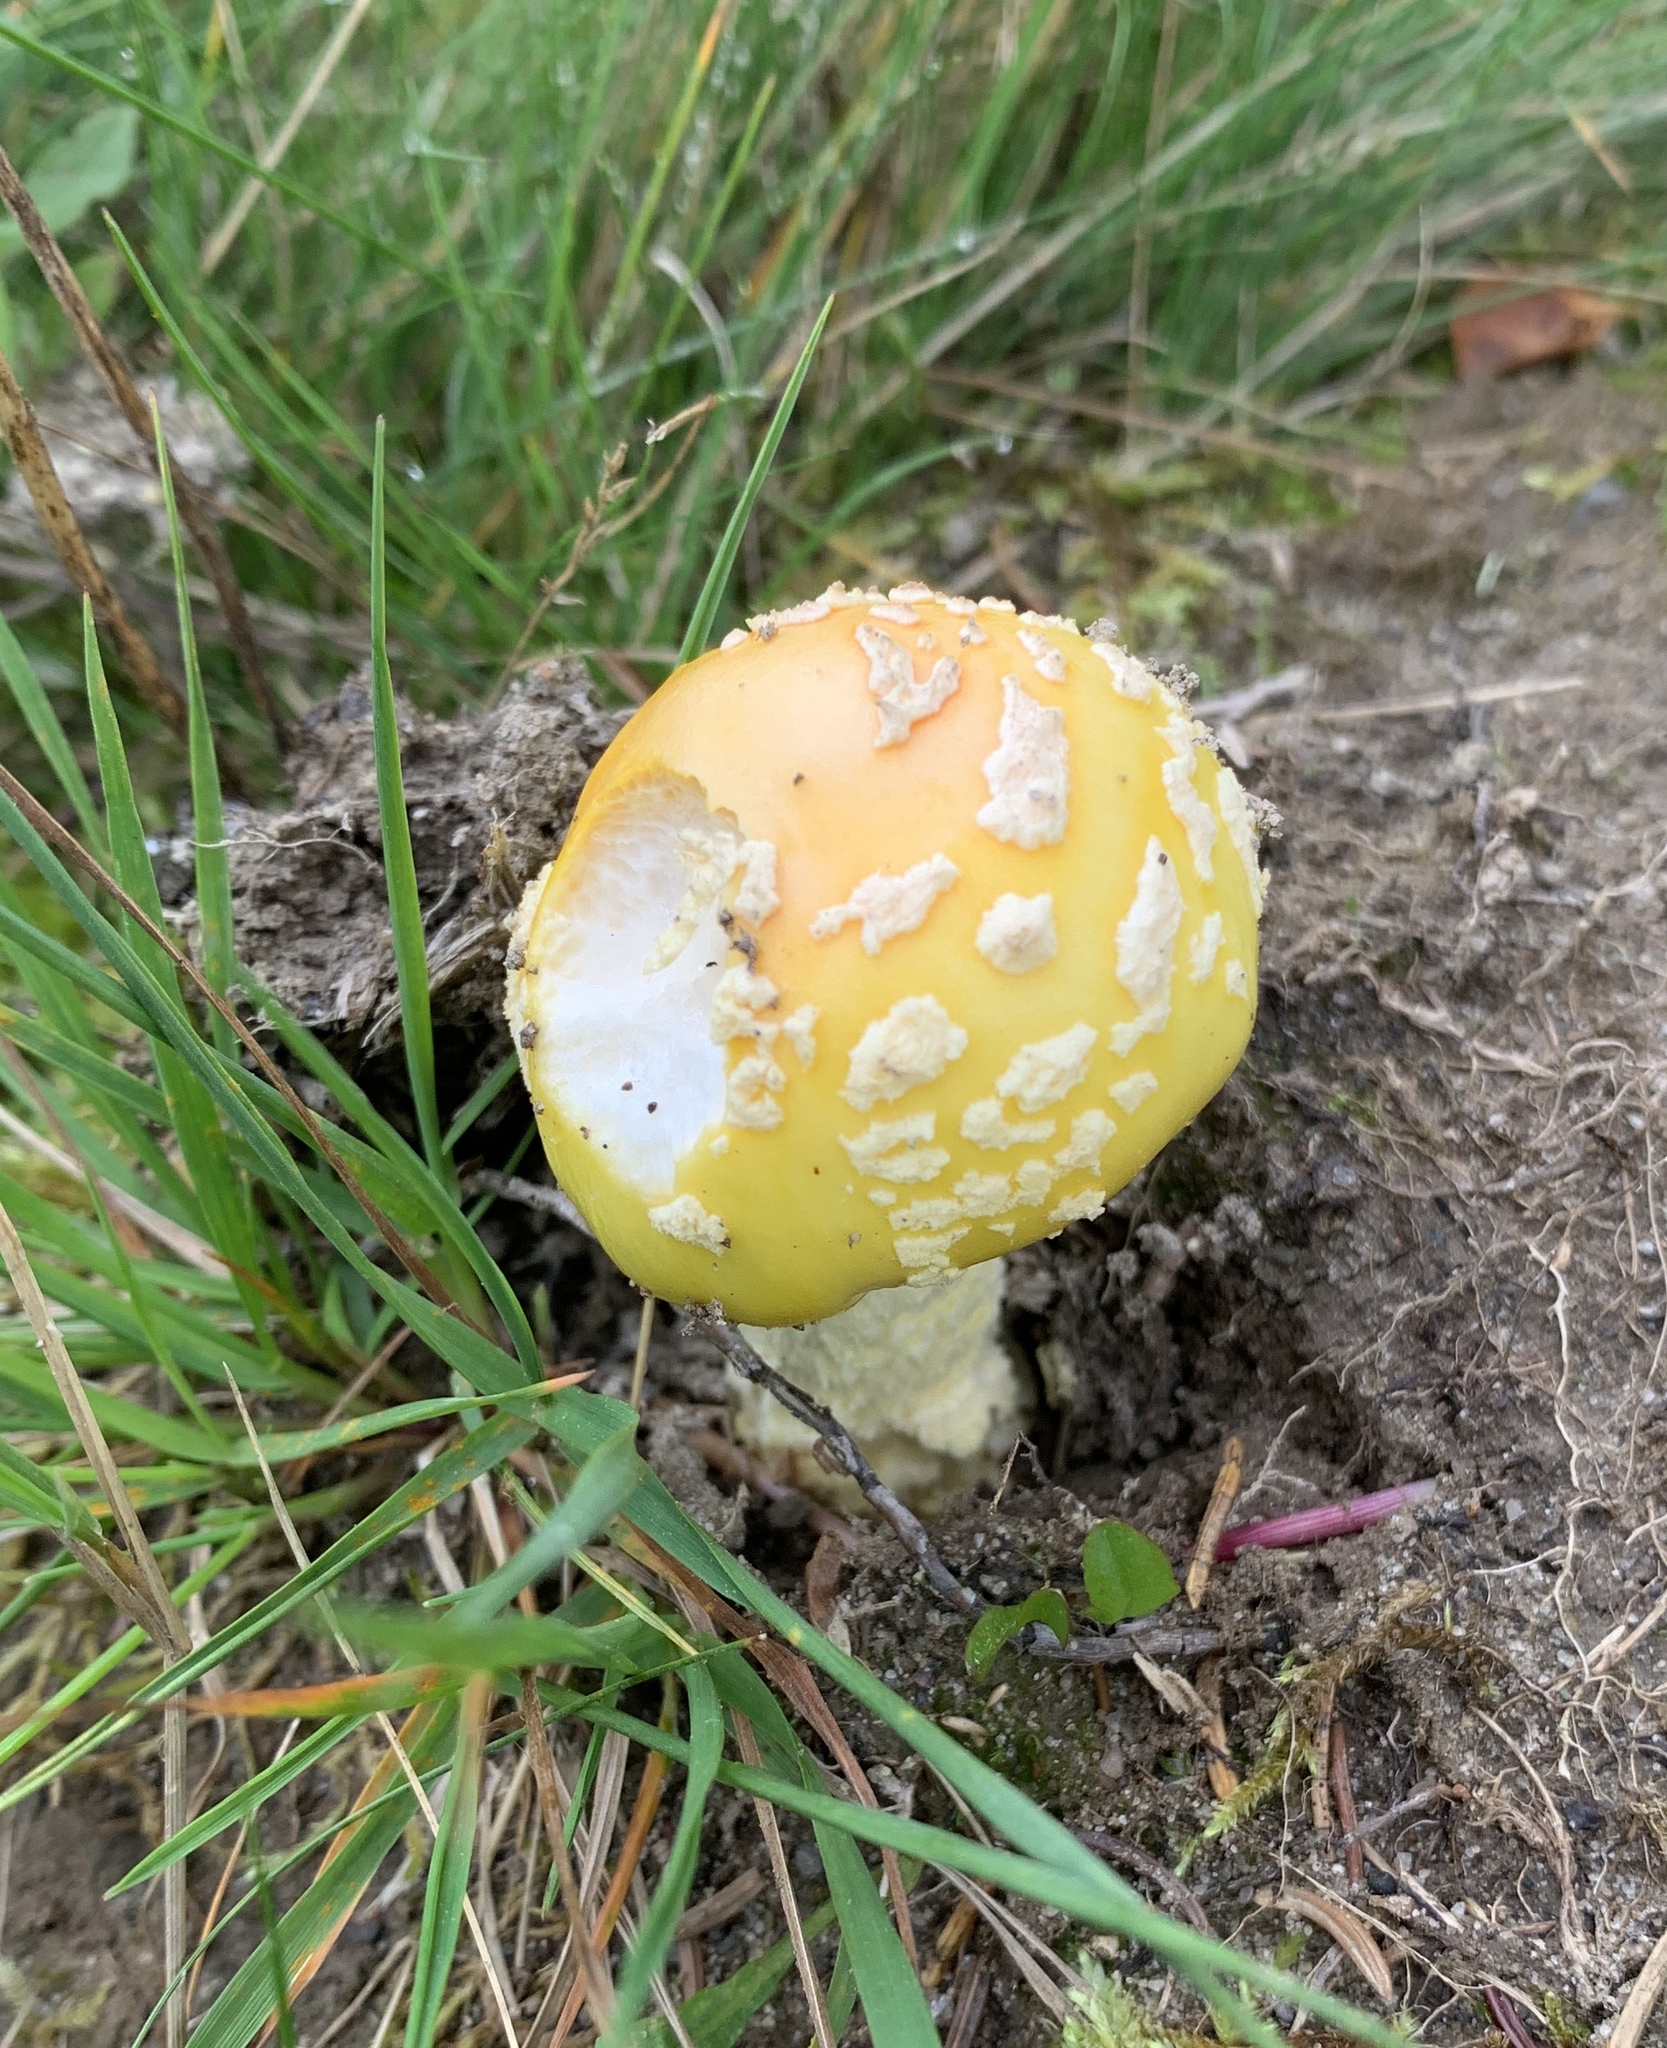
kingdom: Fungi
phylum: Basidiomycota
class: Agaricomycetes
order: Agaricales
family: Amanitaceae
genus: Amanita
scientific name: Amanita muscaria
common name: Fly agaric
